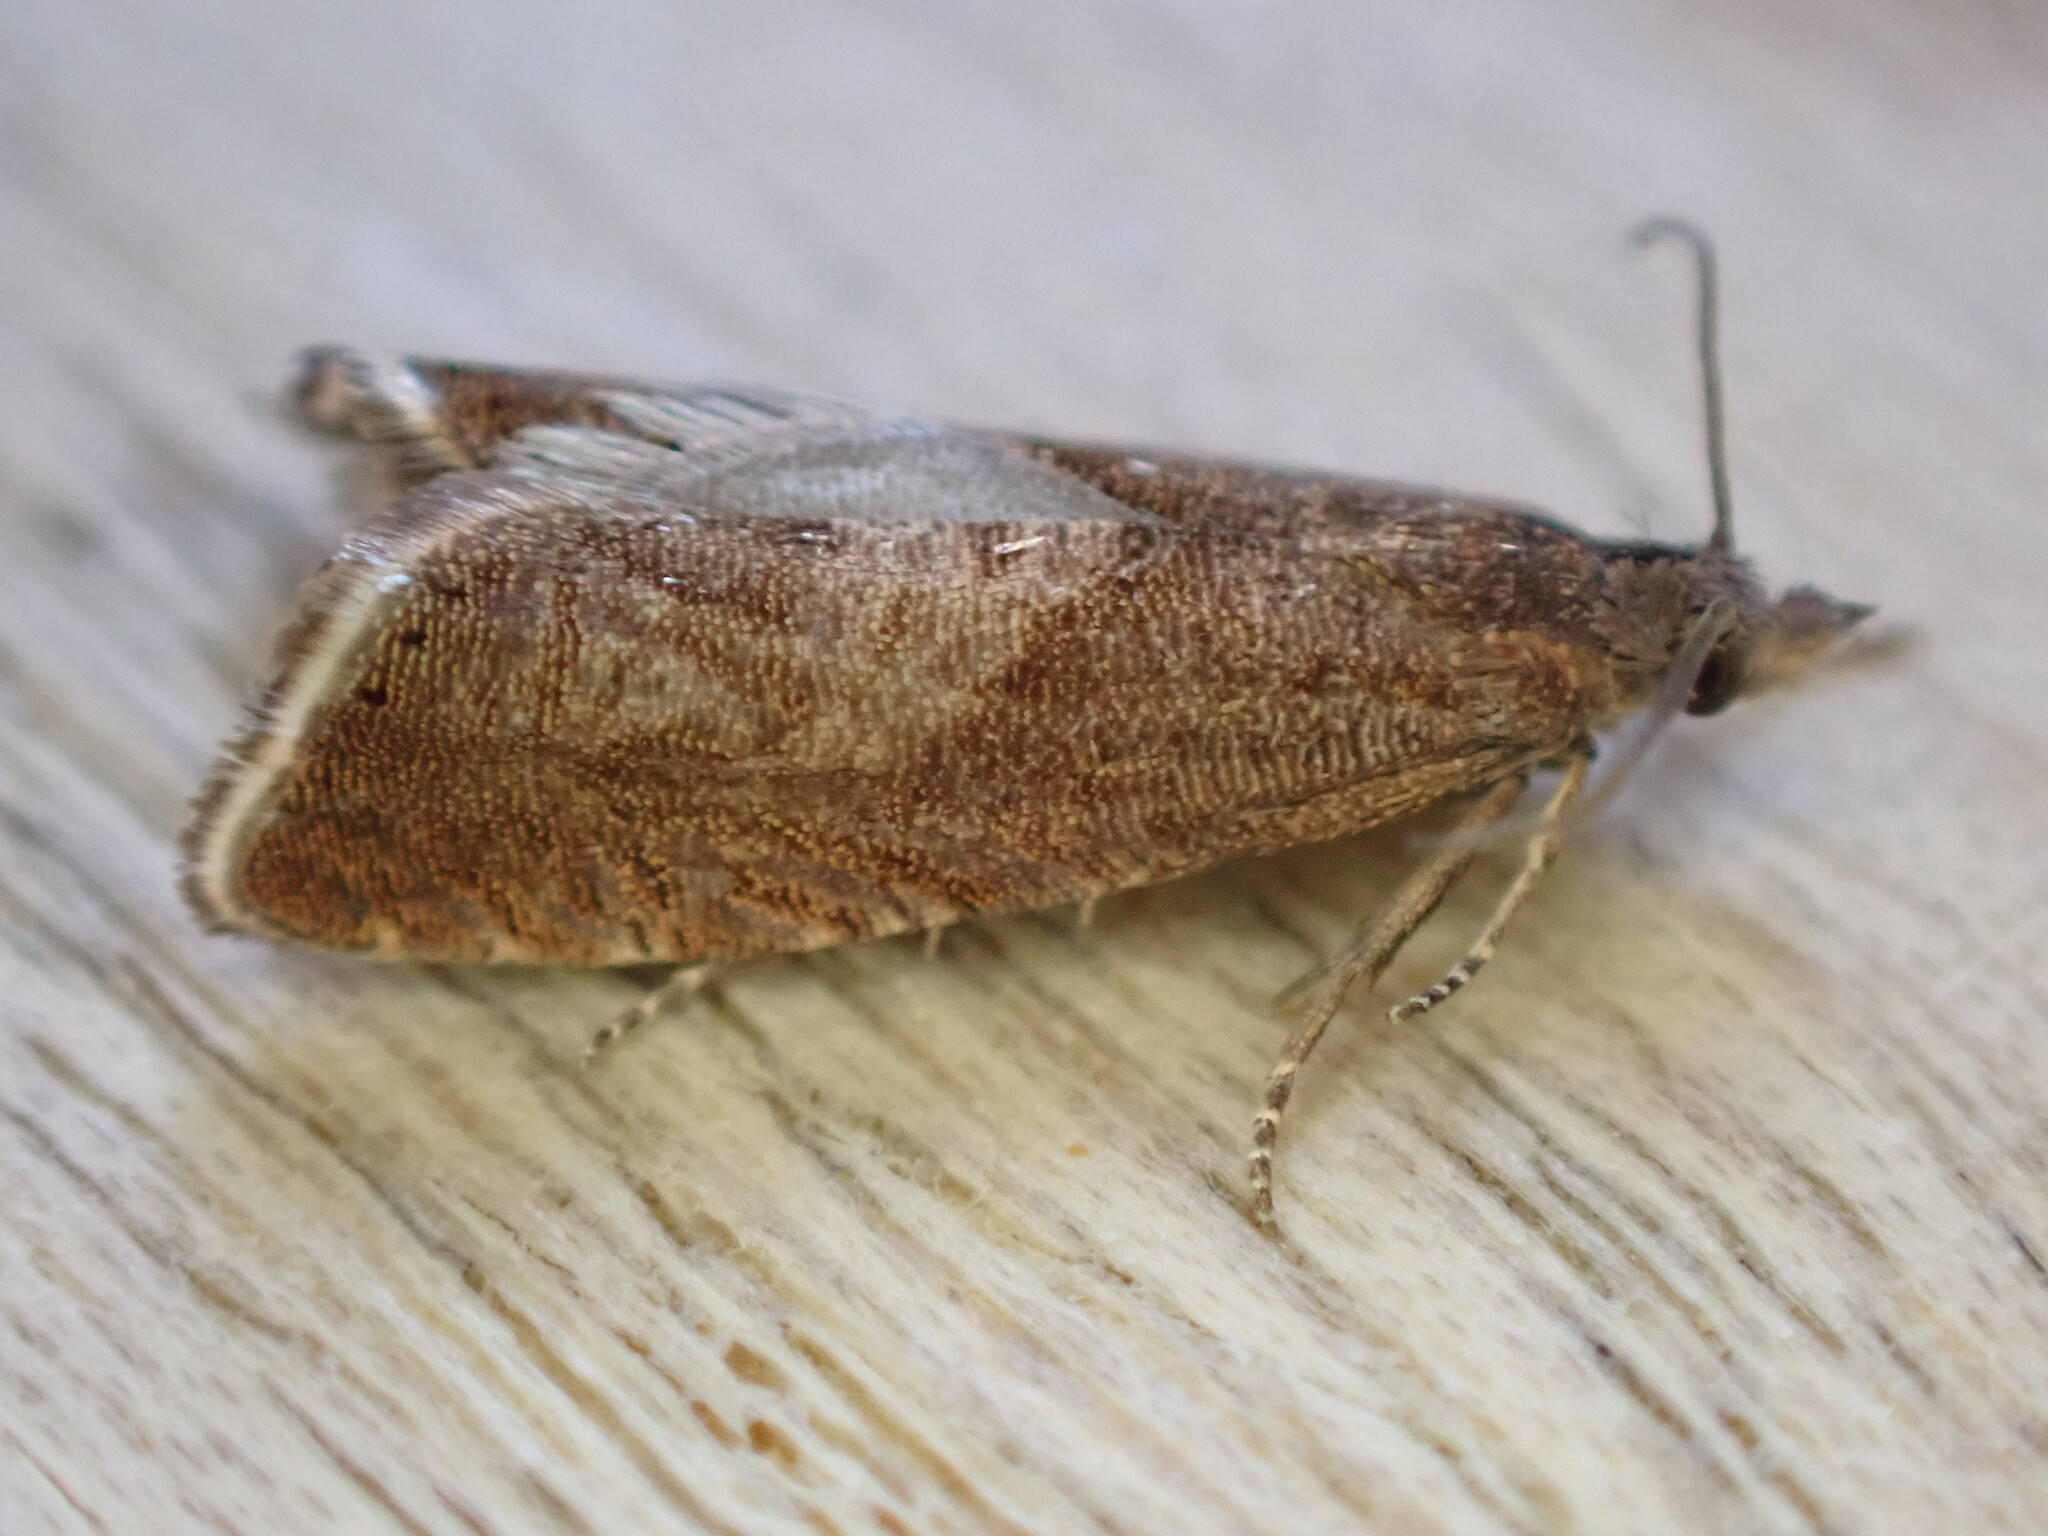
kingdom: Animalia
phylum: Arthropoda
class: Insecta
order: Lepidoptera
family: Tortricidae
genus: Dichrorampha
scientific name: Dichrorampha acuminatana
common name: Sharp-winged drill
